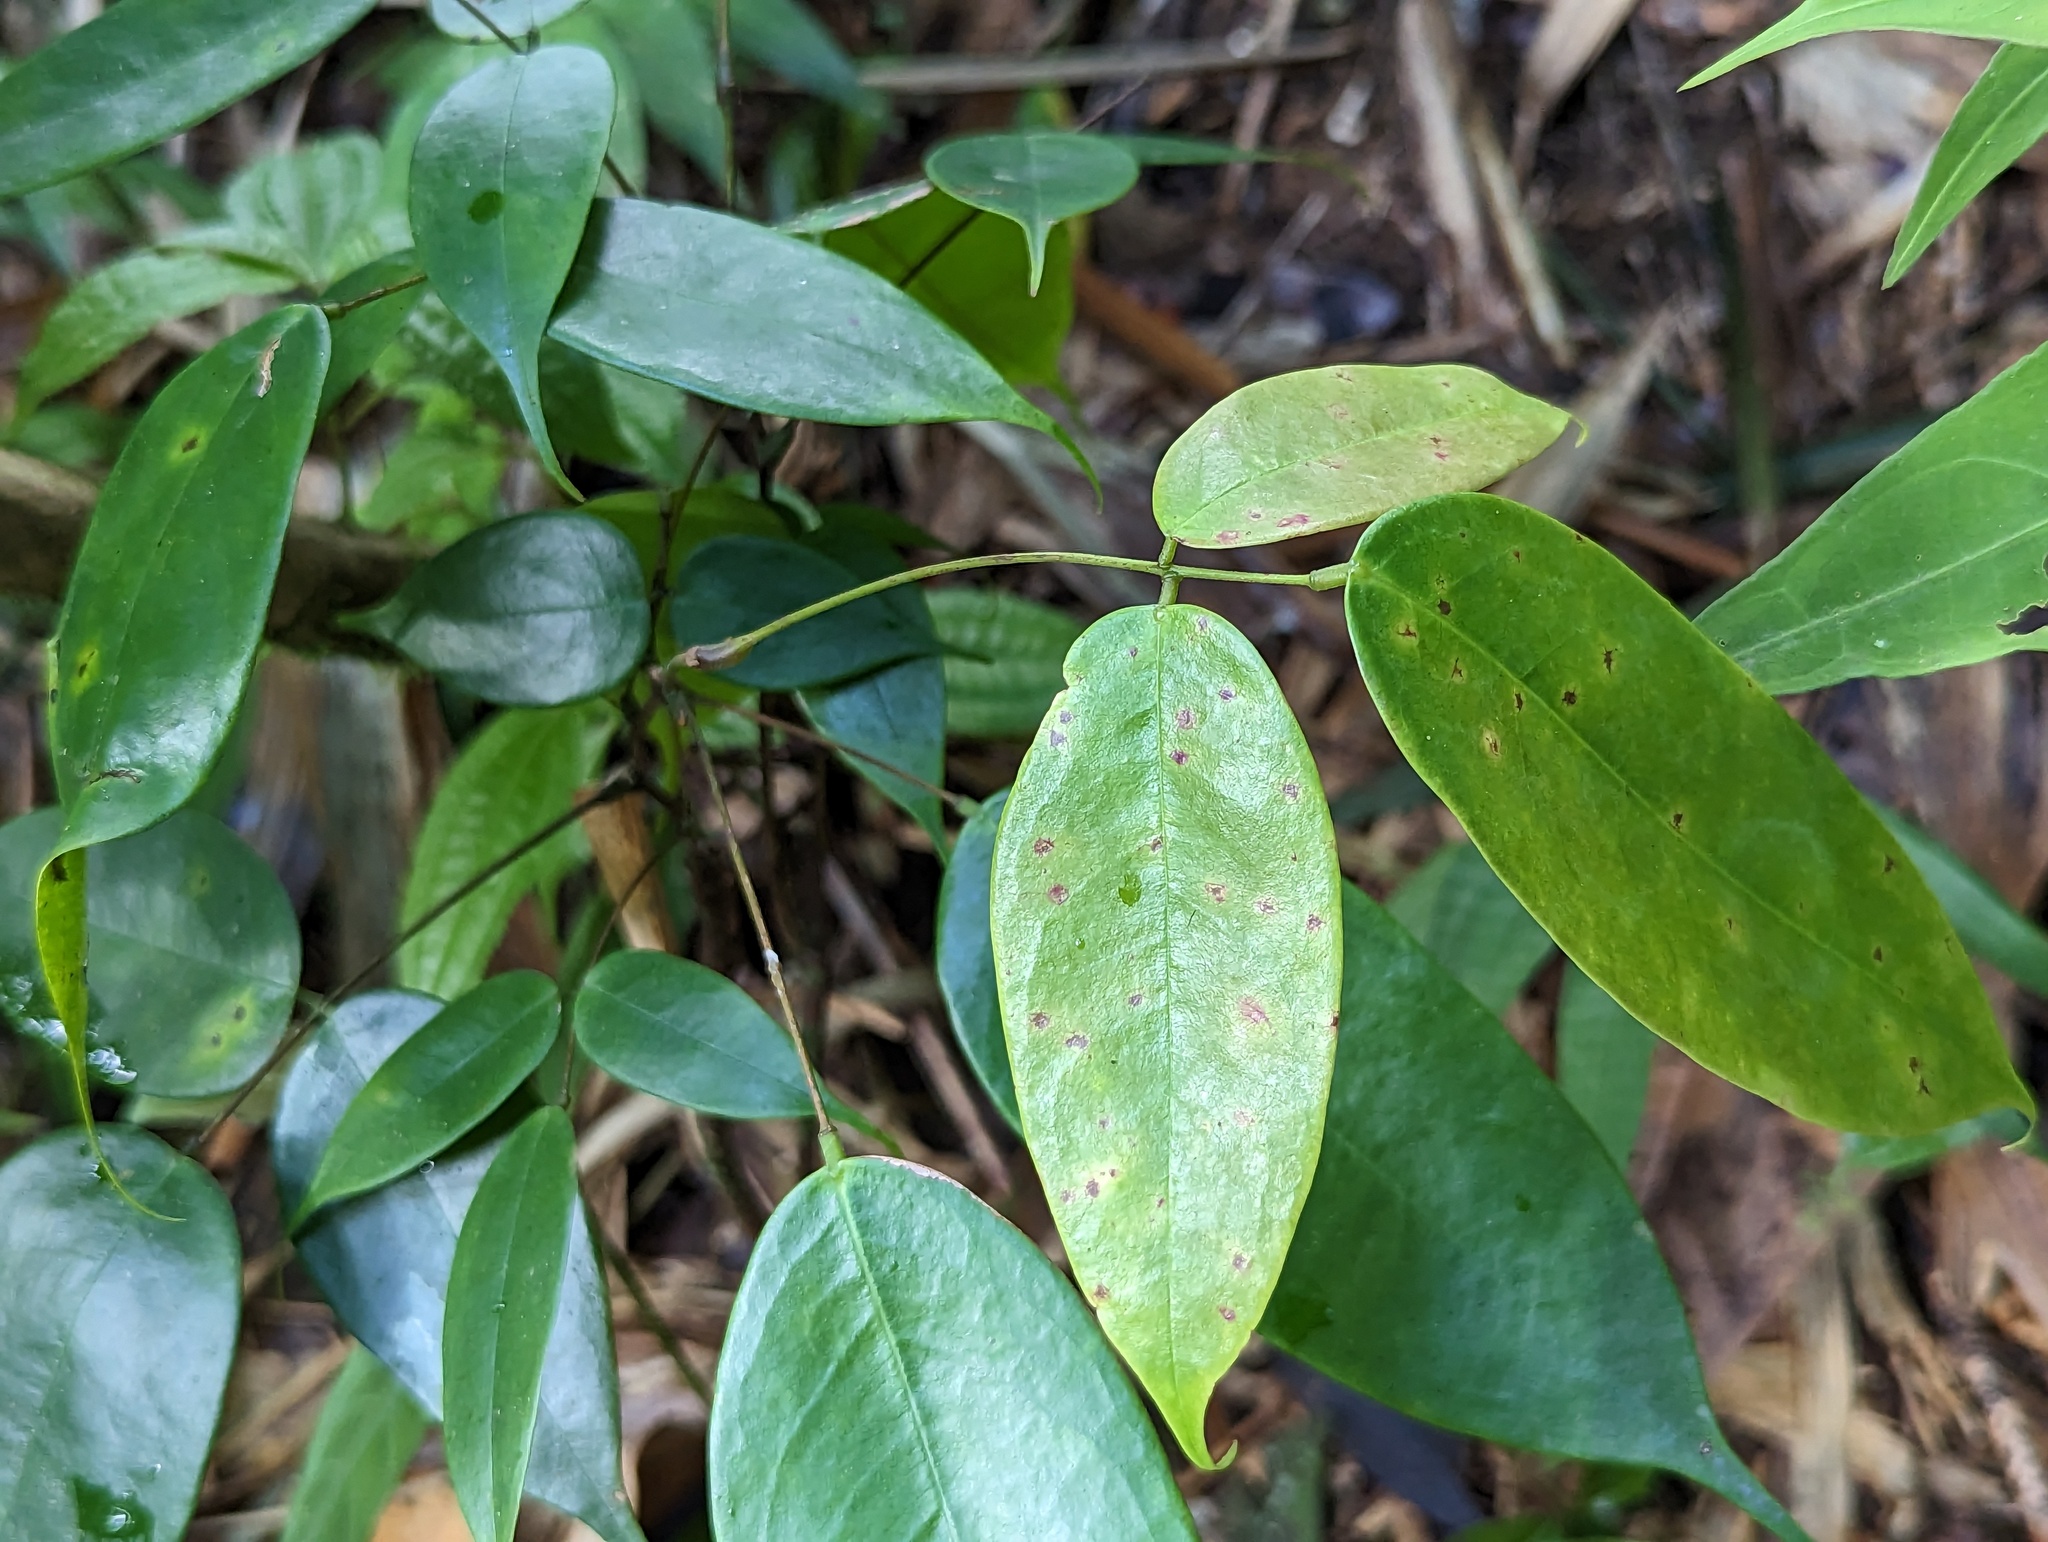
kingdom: Plantae
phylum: Tracheophyta
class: Magnoliopsida
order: Oxalidales
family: Connaraceae
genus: Rourea
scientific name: Rourea surinamensis
